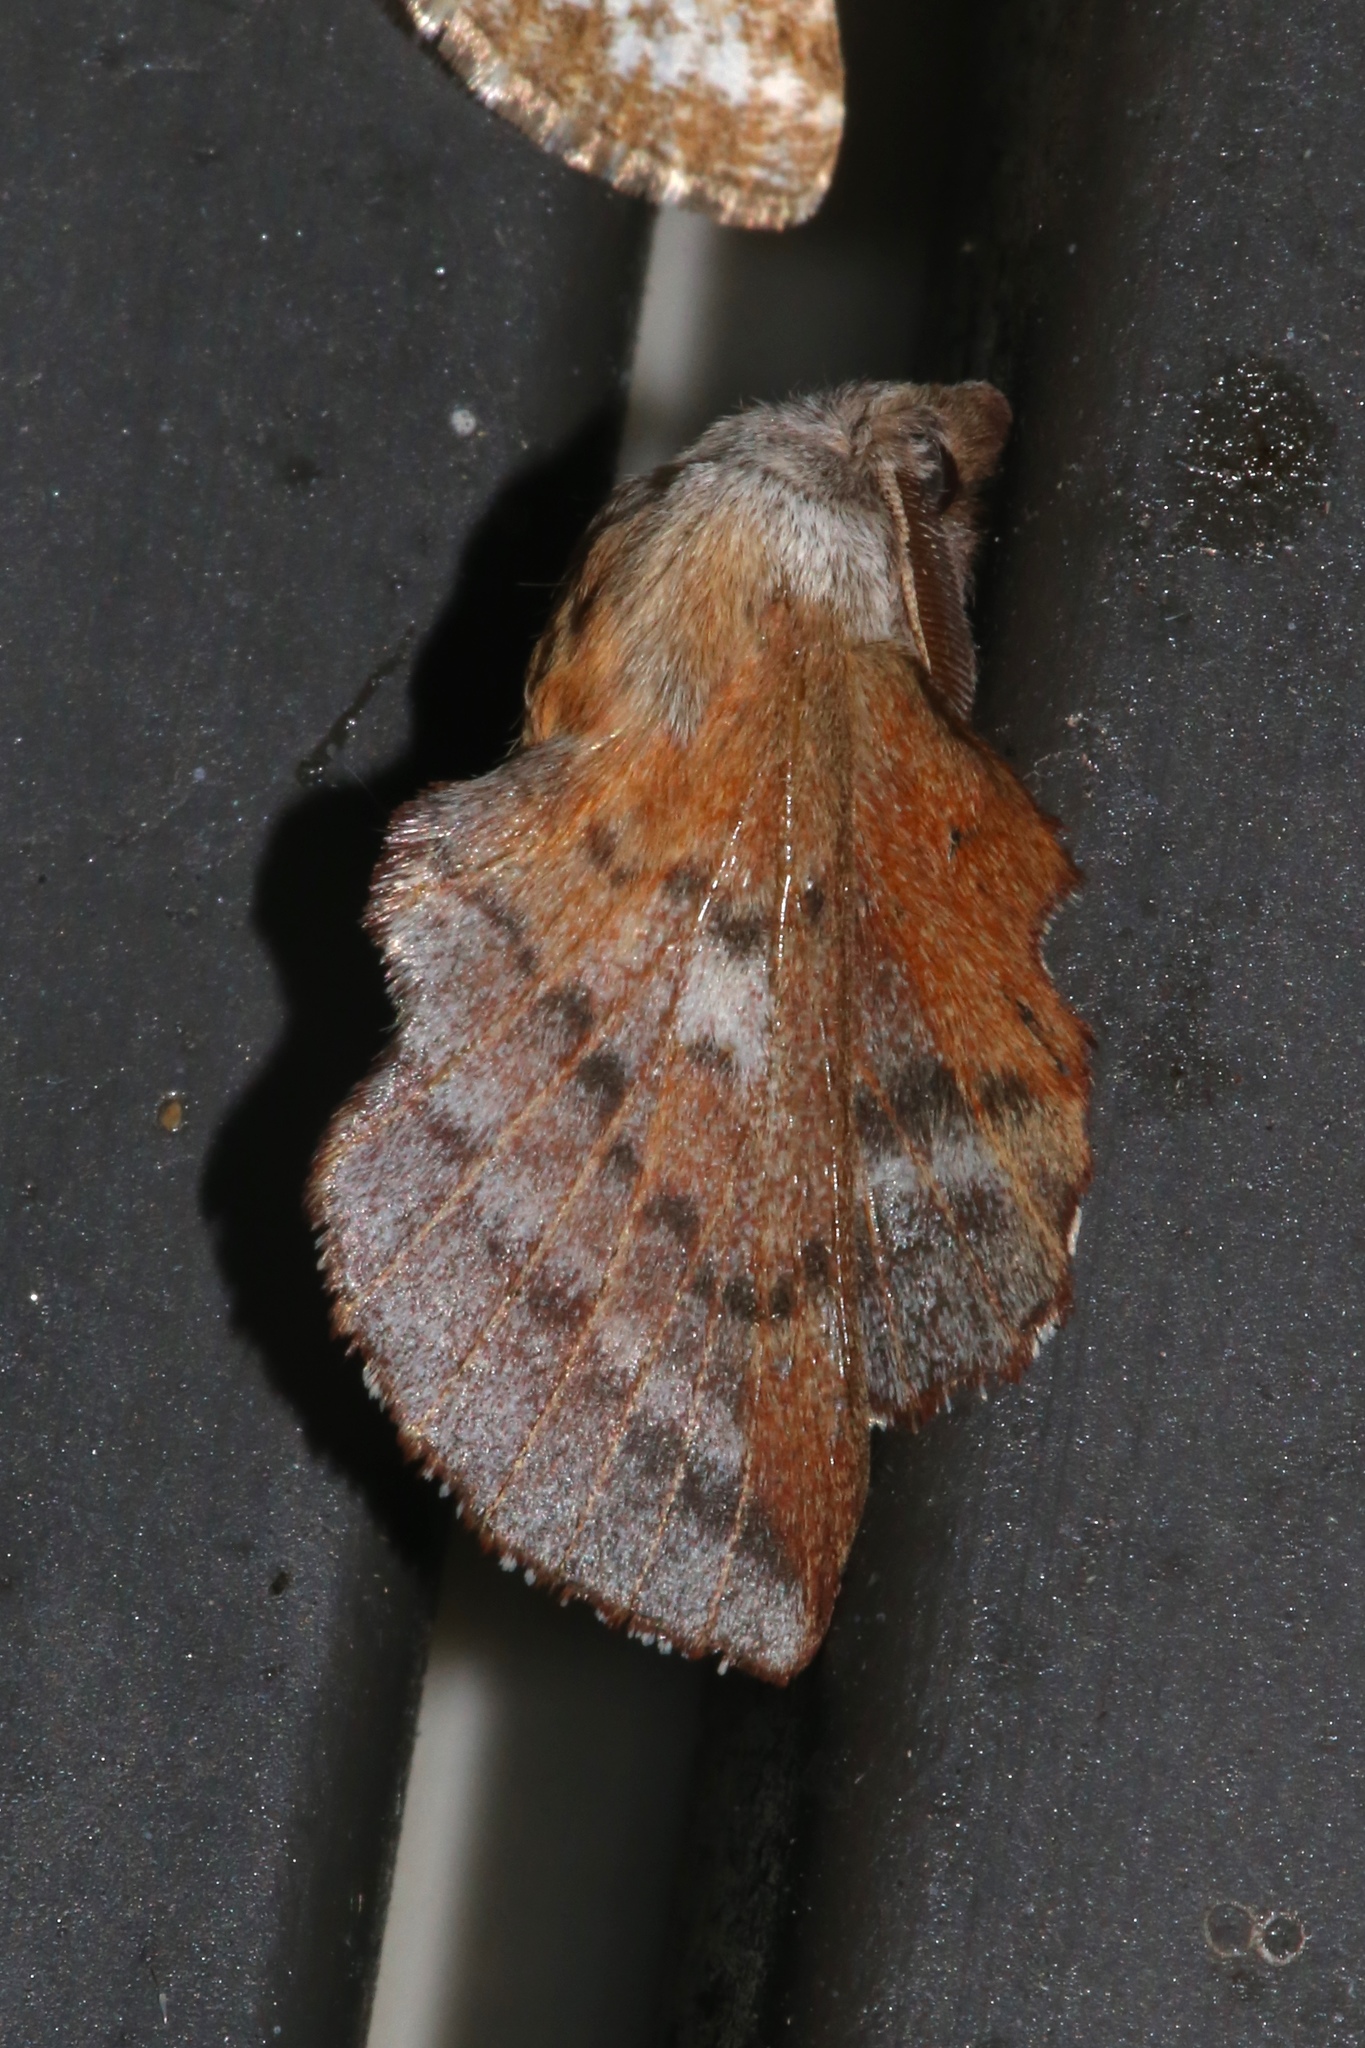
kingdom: Animalia
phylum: Arthropoda
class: Insecta
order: Lepidoptera
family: Lasiocampidae
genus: Phyllodesma
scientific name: Phyllodesma americana
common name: American lappet moth
